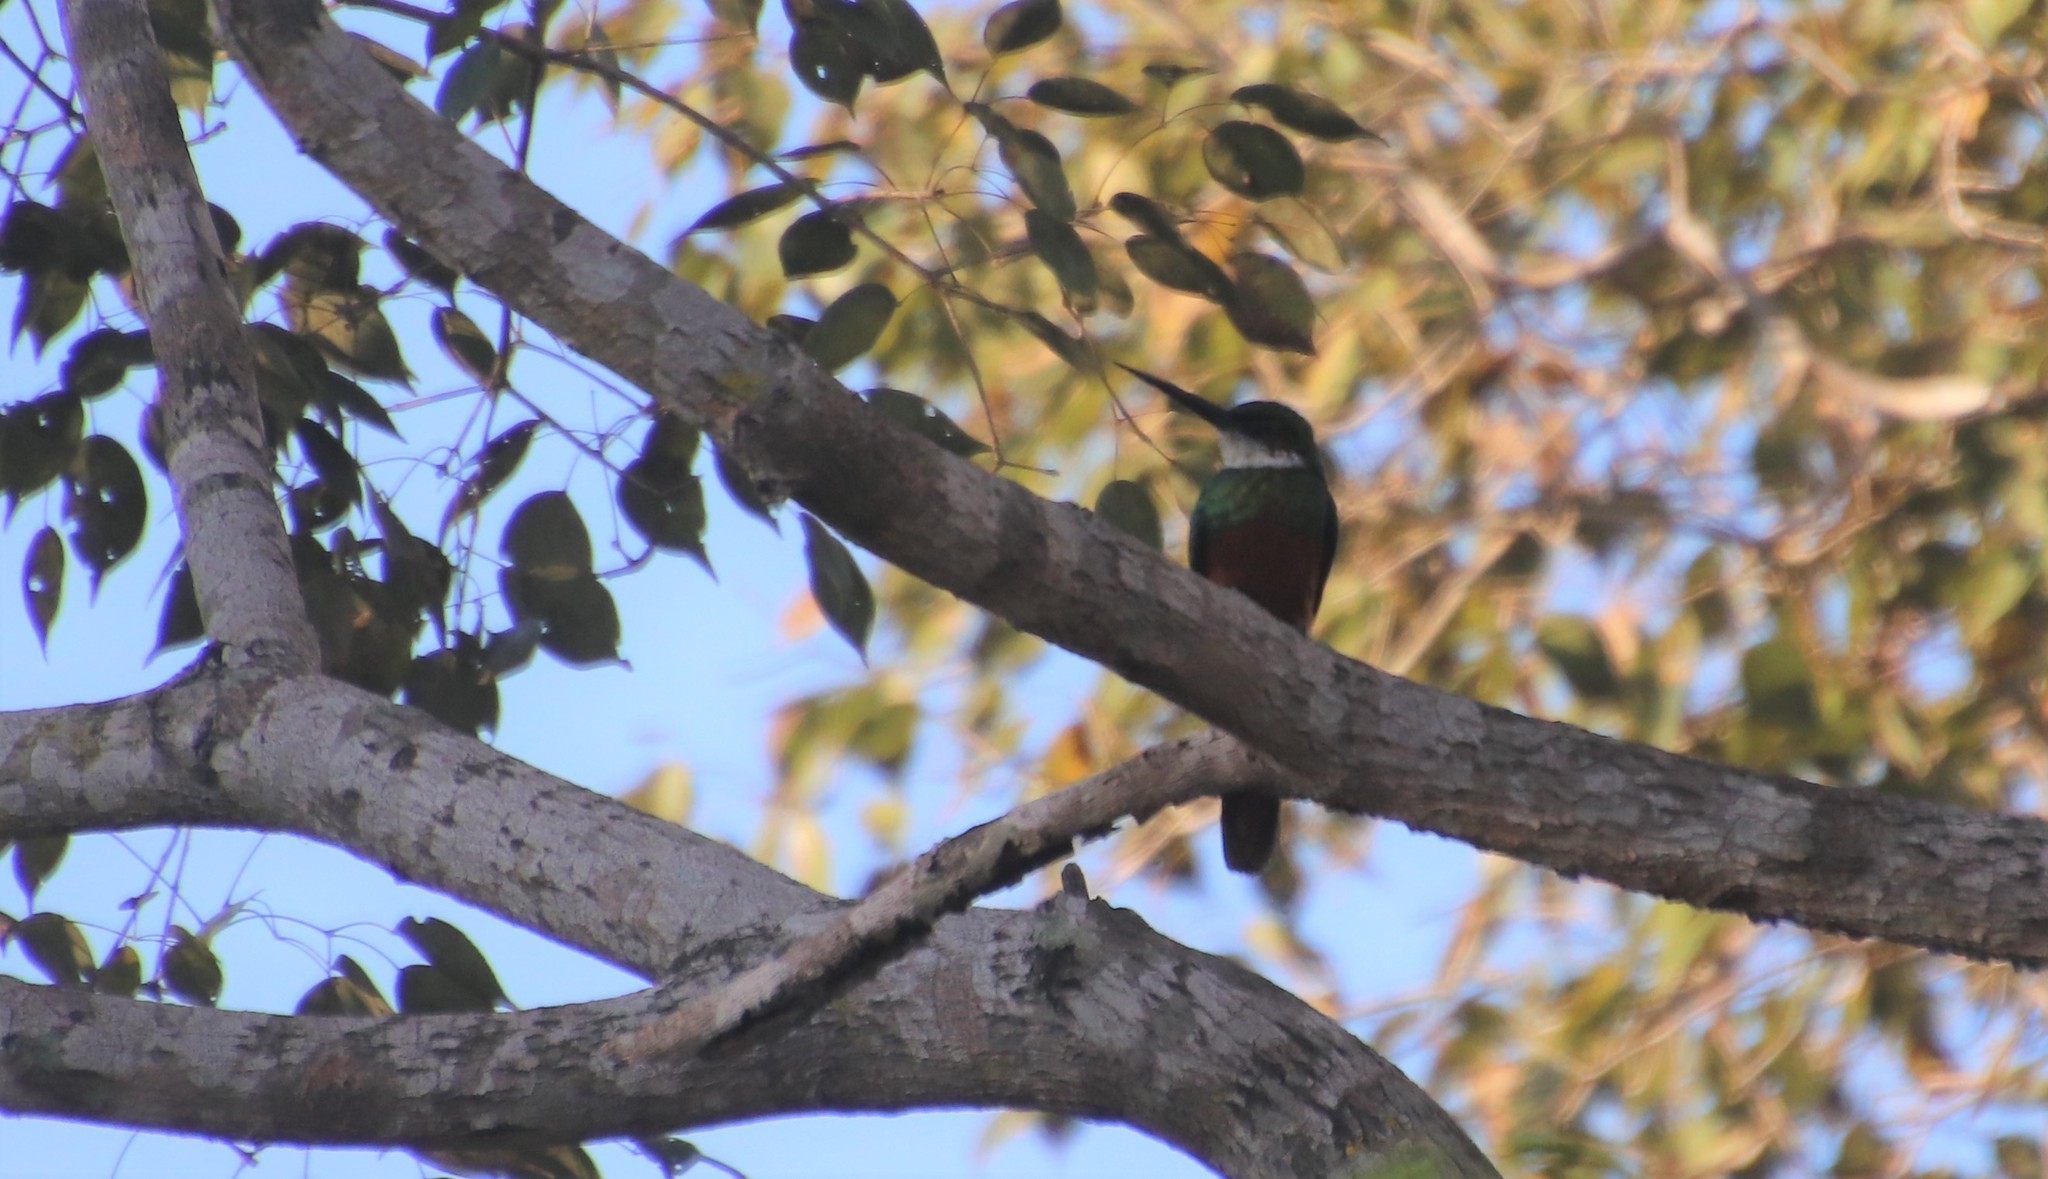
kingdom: Animalia
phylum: Chordata
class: Aves
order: Piciformes
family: Galbulidae
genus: Galbula
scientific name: Galbula ruficauda
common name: Rufous-tailed jacamar
